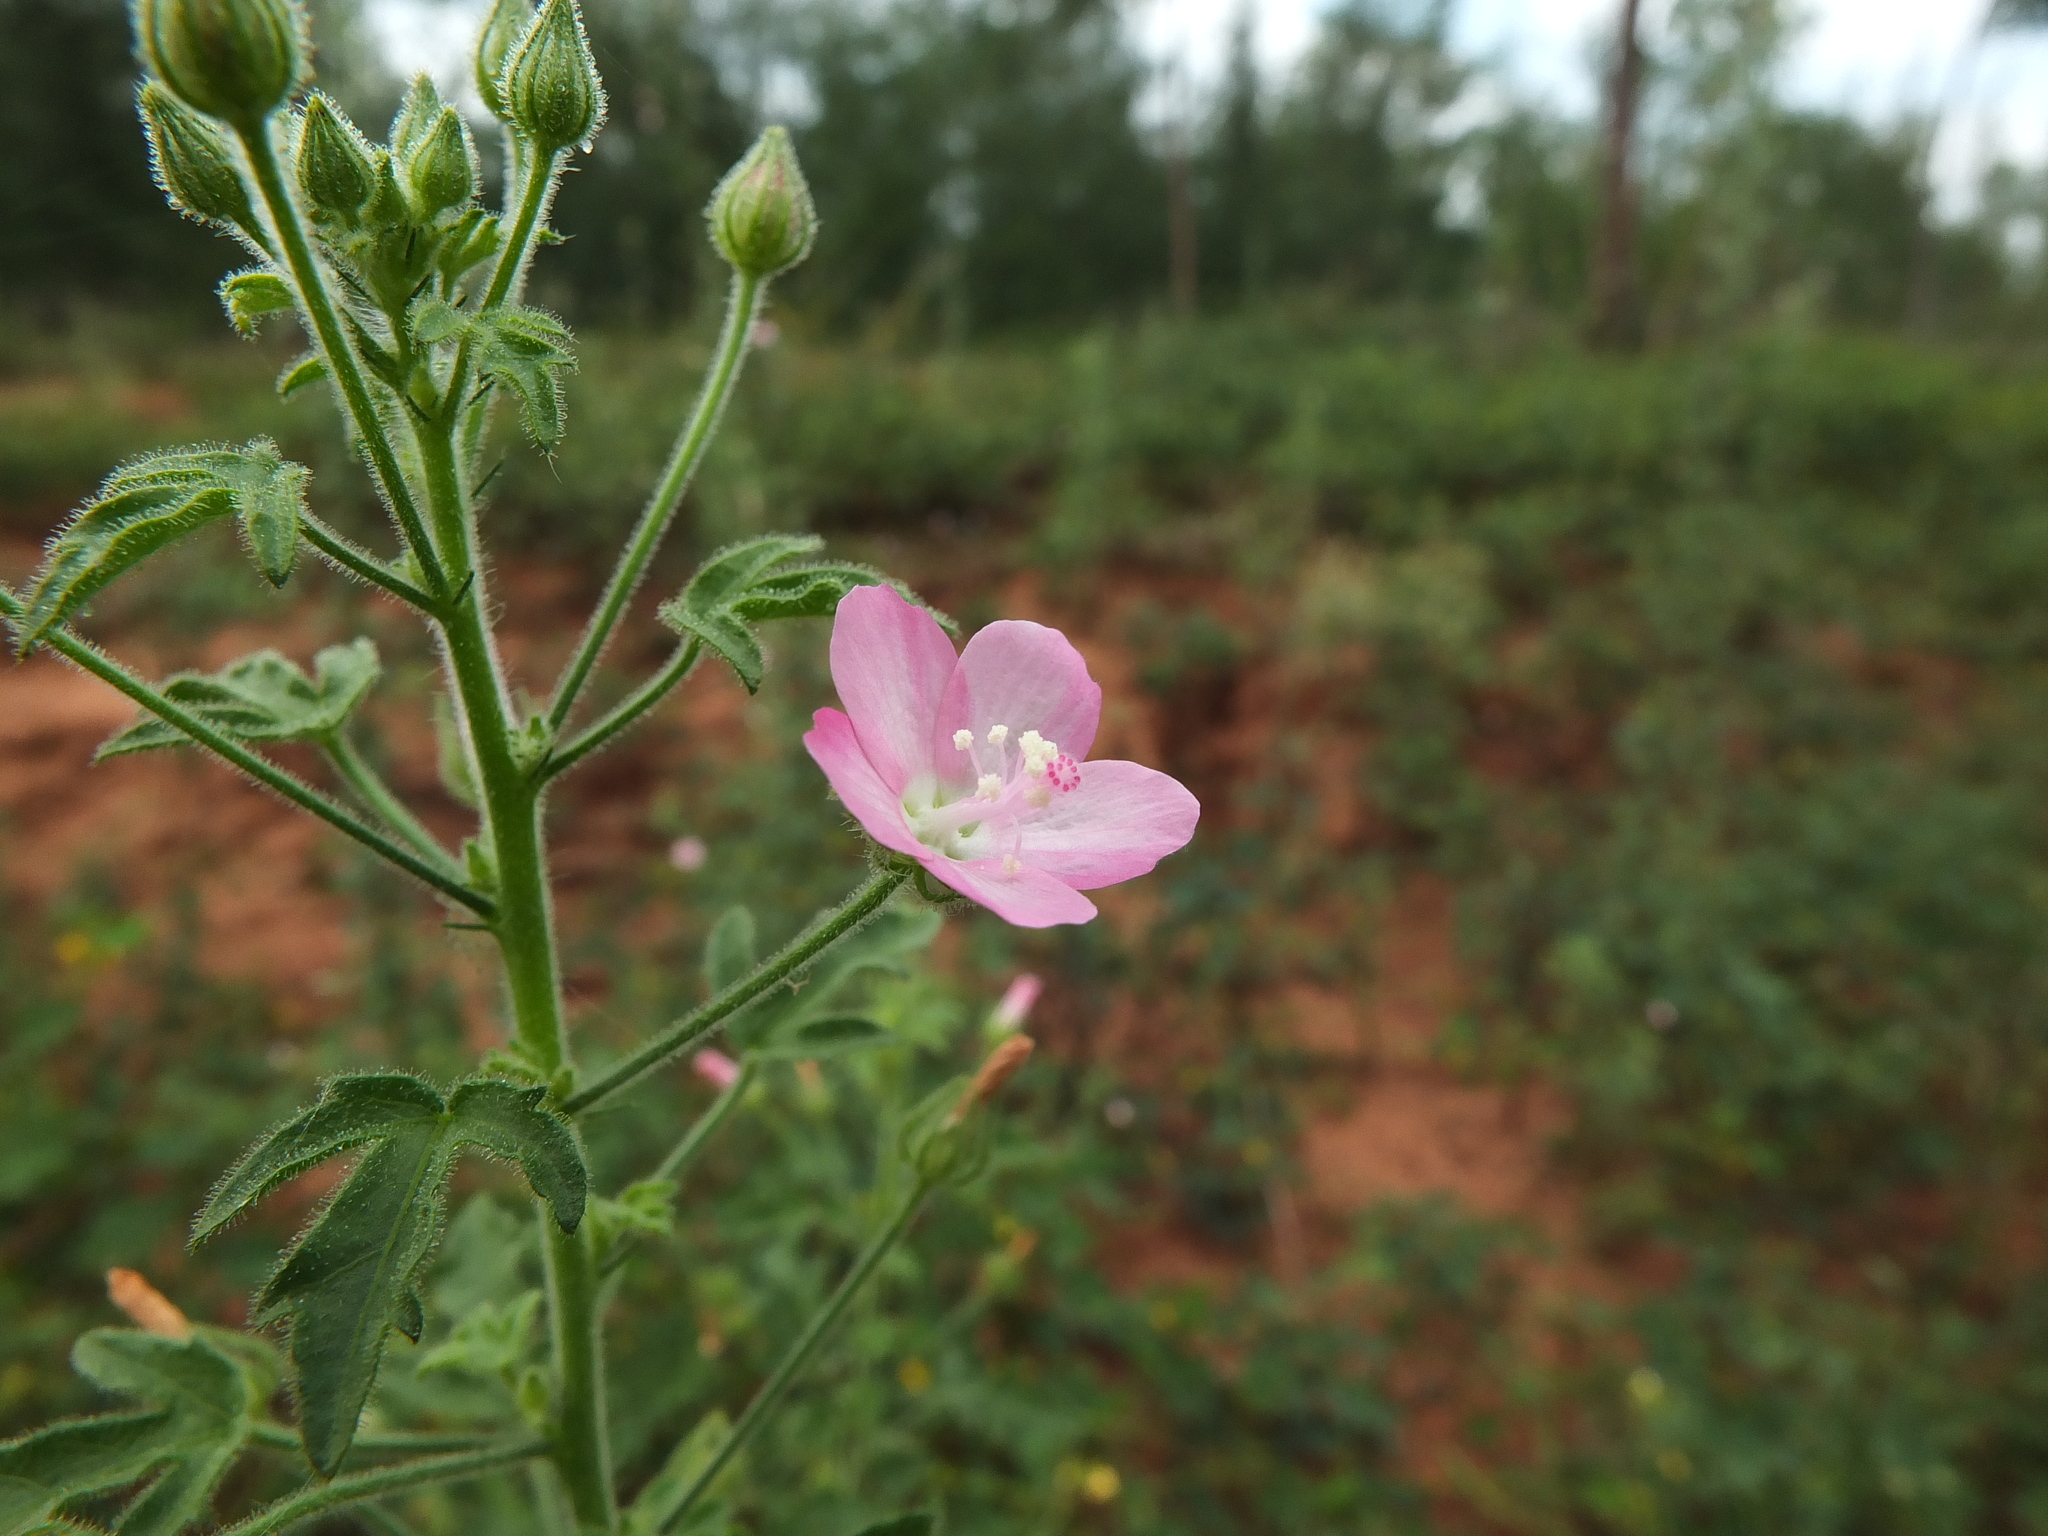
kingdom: Plantae
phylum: Tracheophyta
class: Magnoliopsida
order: Malvales
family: Malvaceae
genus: Pavonia
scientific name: Pavonia zeylanica
